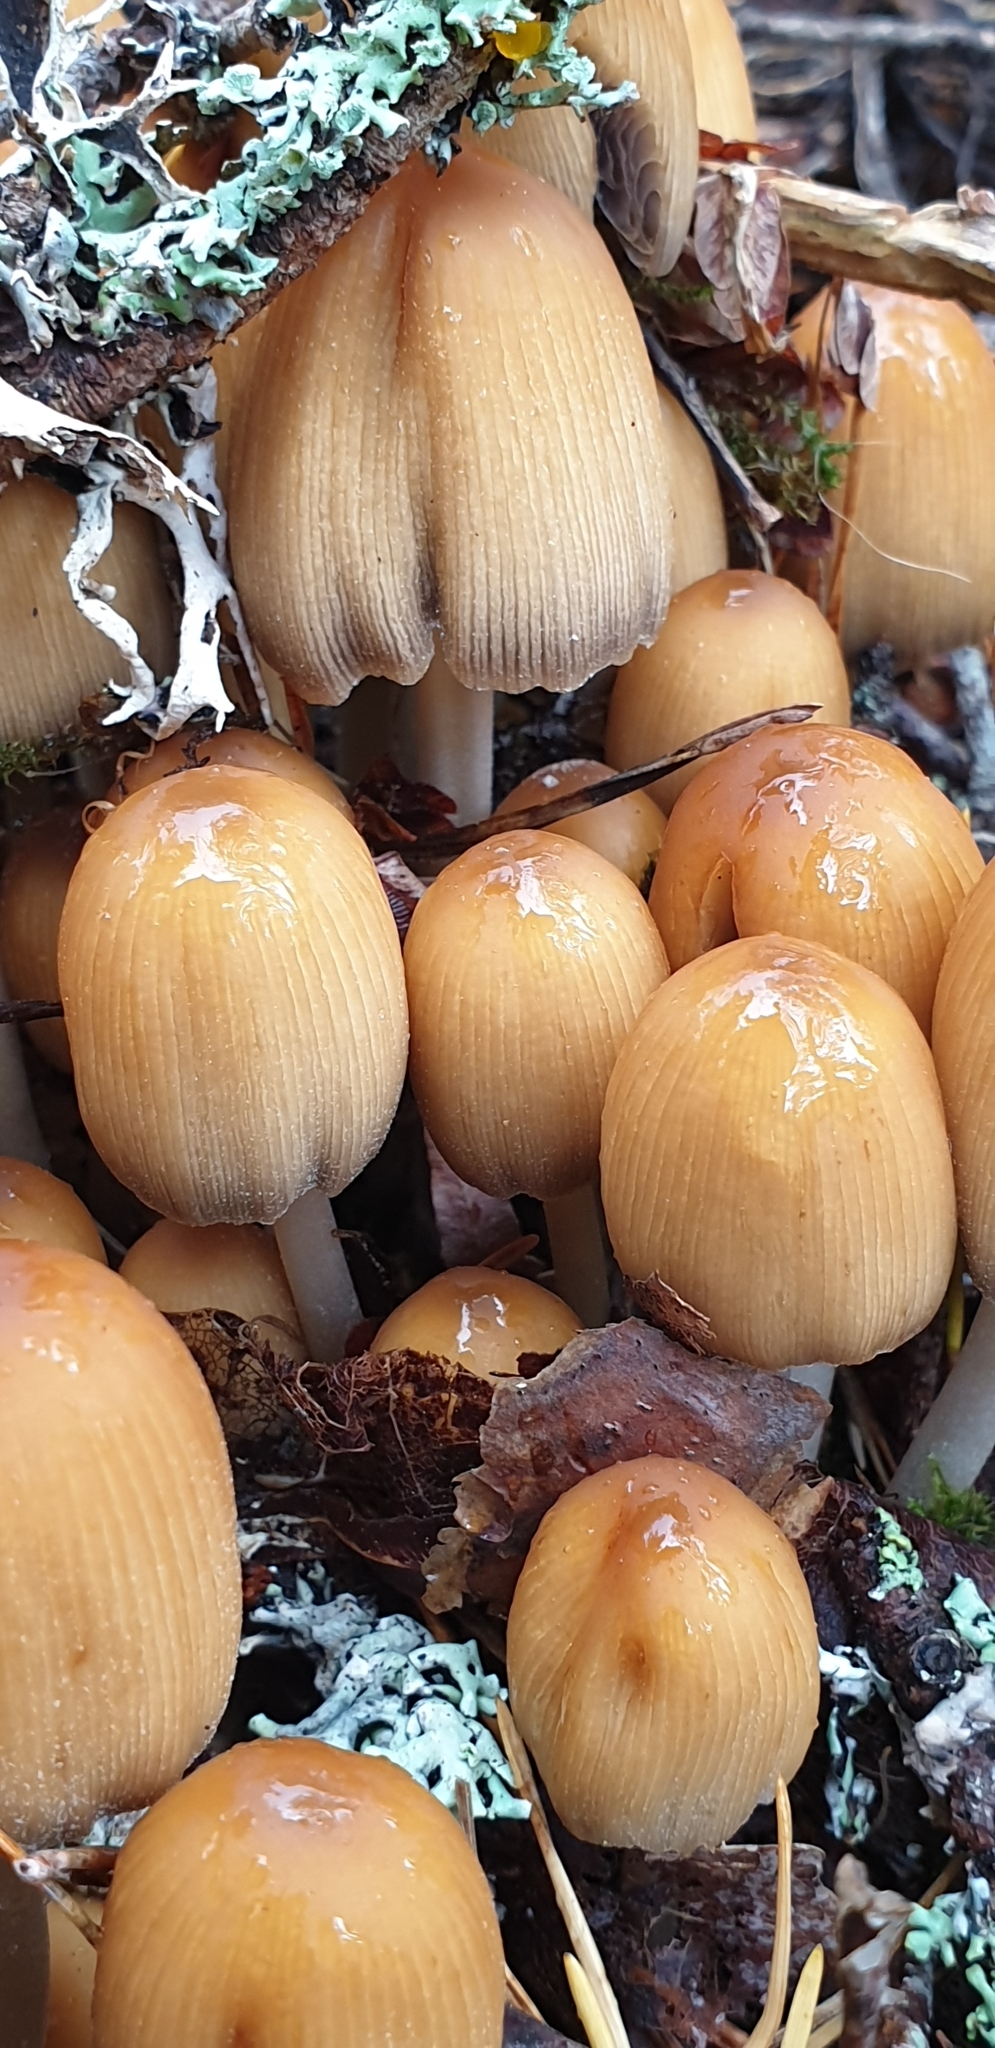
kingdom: Fungi
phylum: Basidiomycota
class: Agaricomycetes
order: Agaricales
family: Psathyrellaceae
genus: Coprinellus
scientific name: Coprinellus micaceus
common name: Glistening ink-cap
